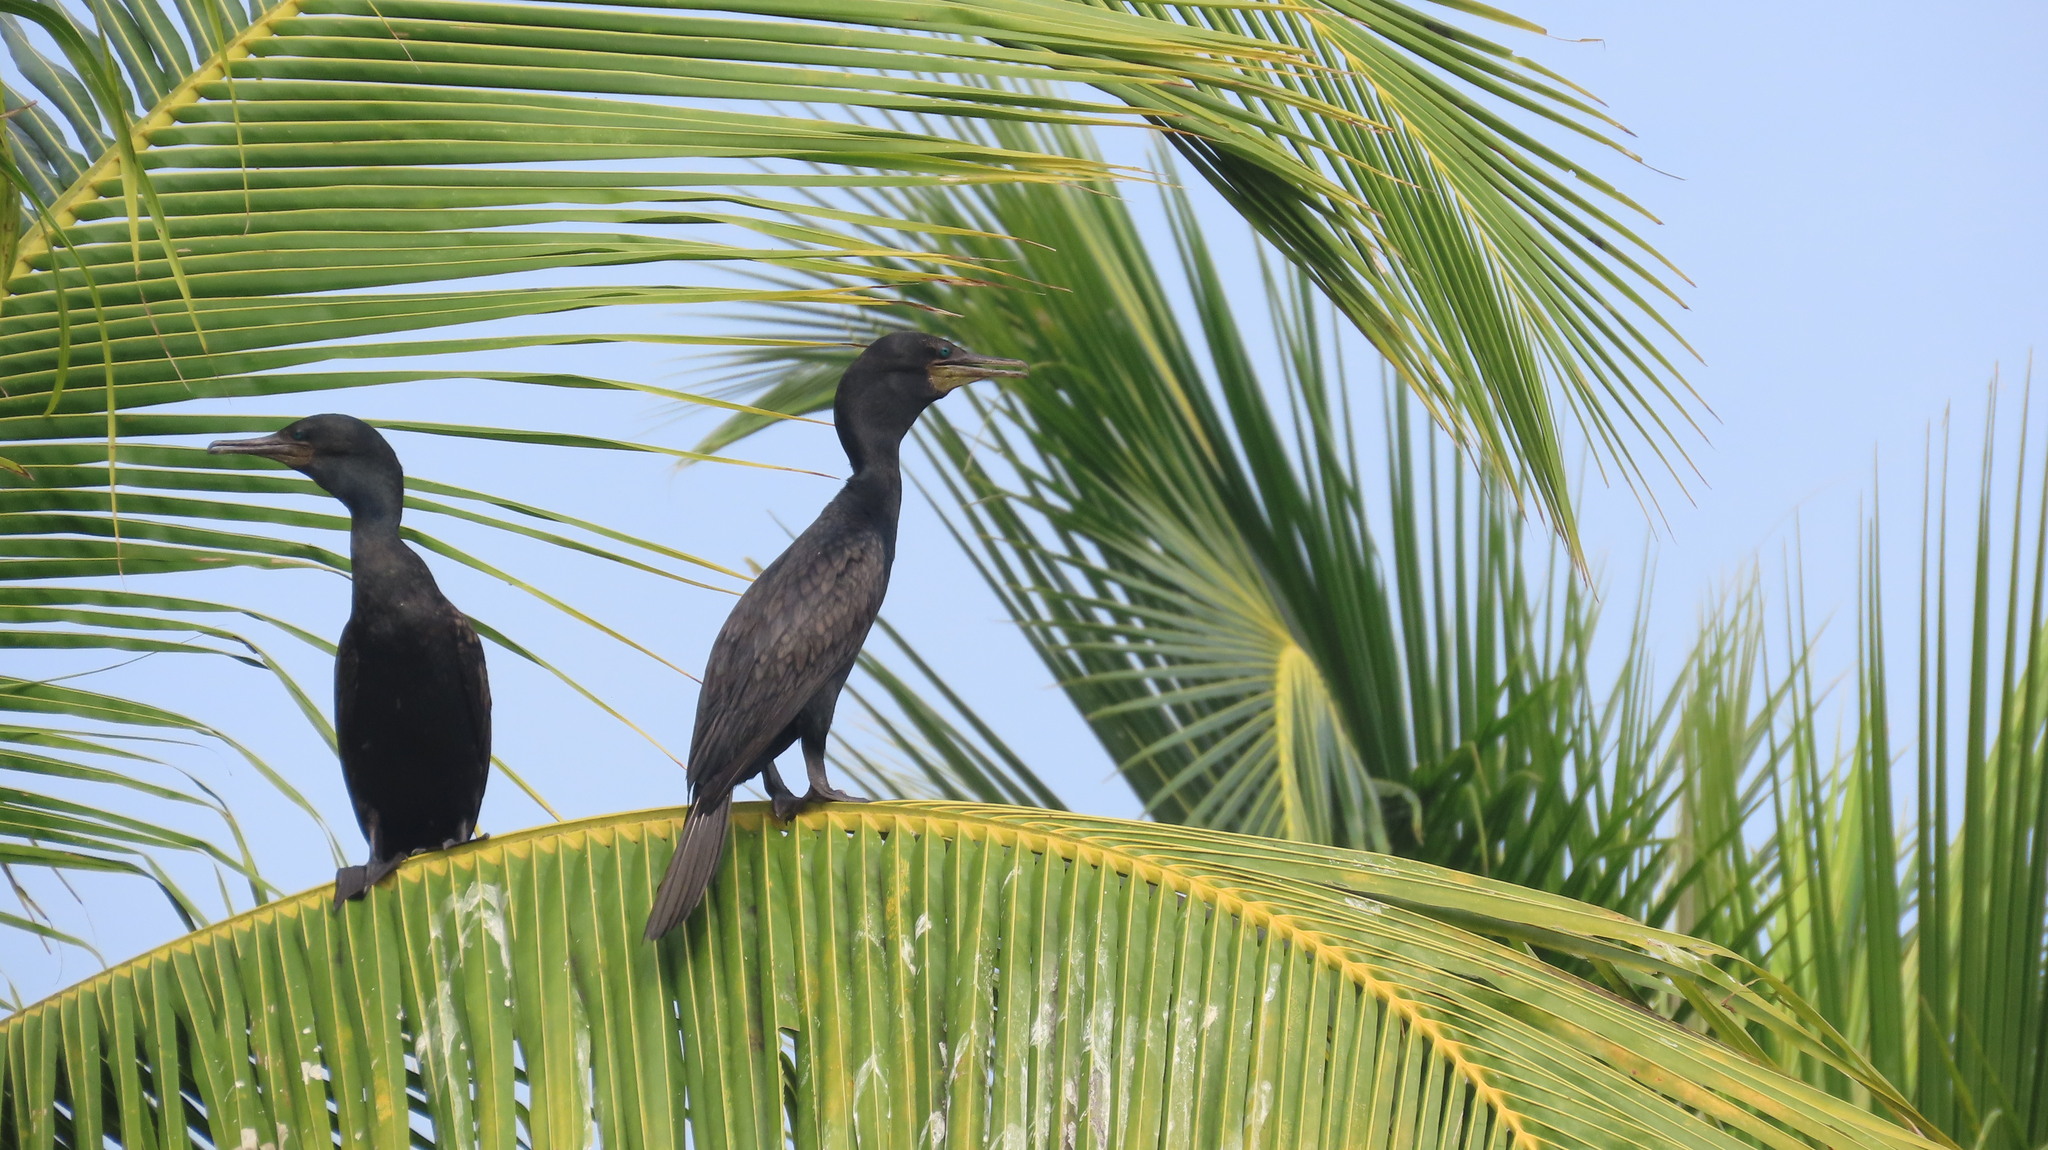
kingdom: Animalia
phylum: Chordata
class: Aves
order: Suliformes
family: Phalacrocoracidae
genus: Phalacrocorax
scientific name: Phalacrocorax fuscicollis
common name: Indian cormorant
